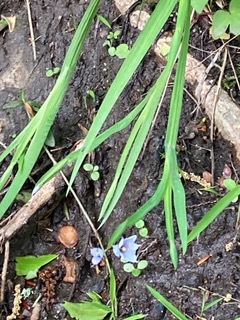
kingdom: Plantae
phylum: Tracheophyta
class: Liliopsida
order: Asparagales
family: Iridaceae
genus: Sisyrinchium
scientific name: Sisyrinchium angustifolium
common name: Narrow-leaf blue-eyed-grass
